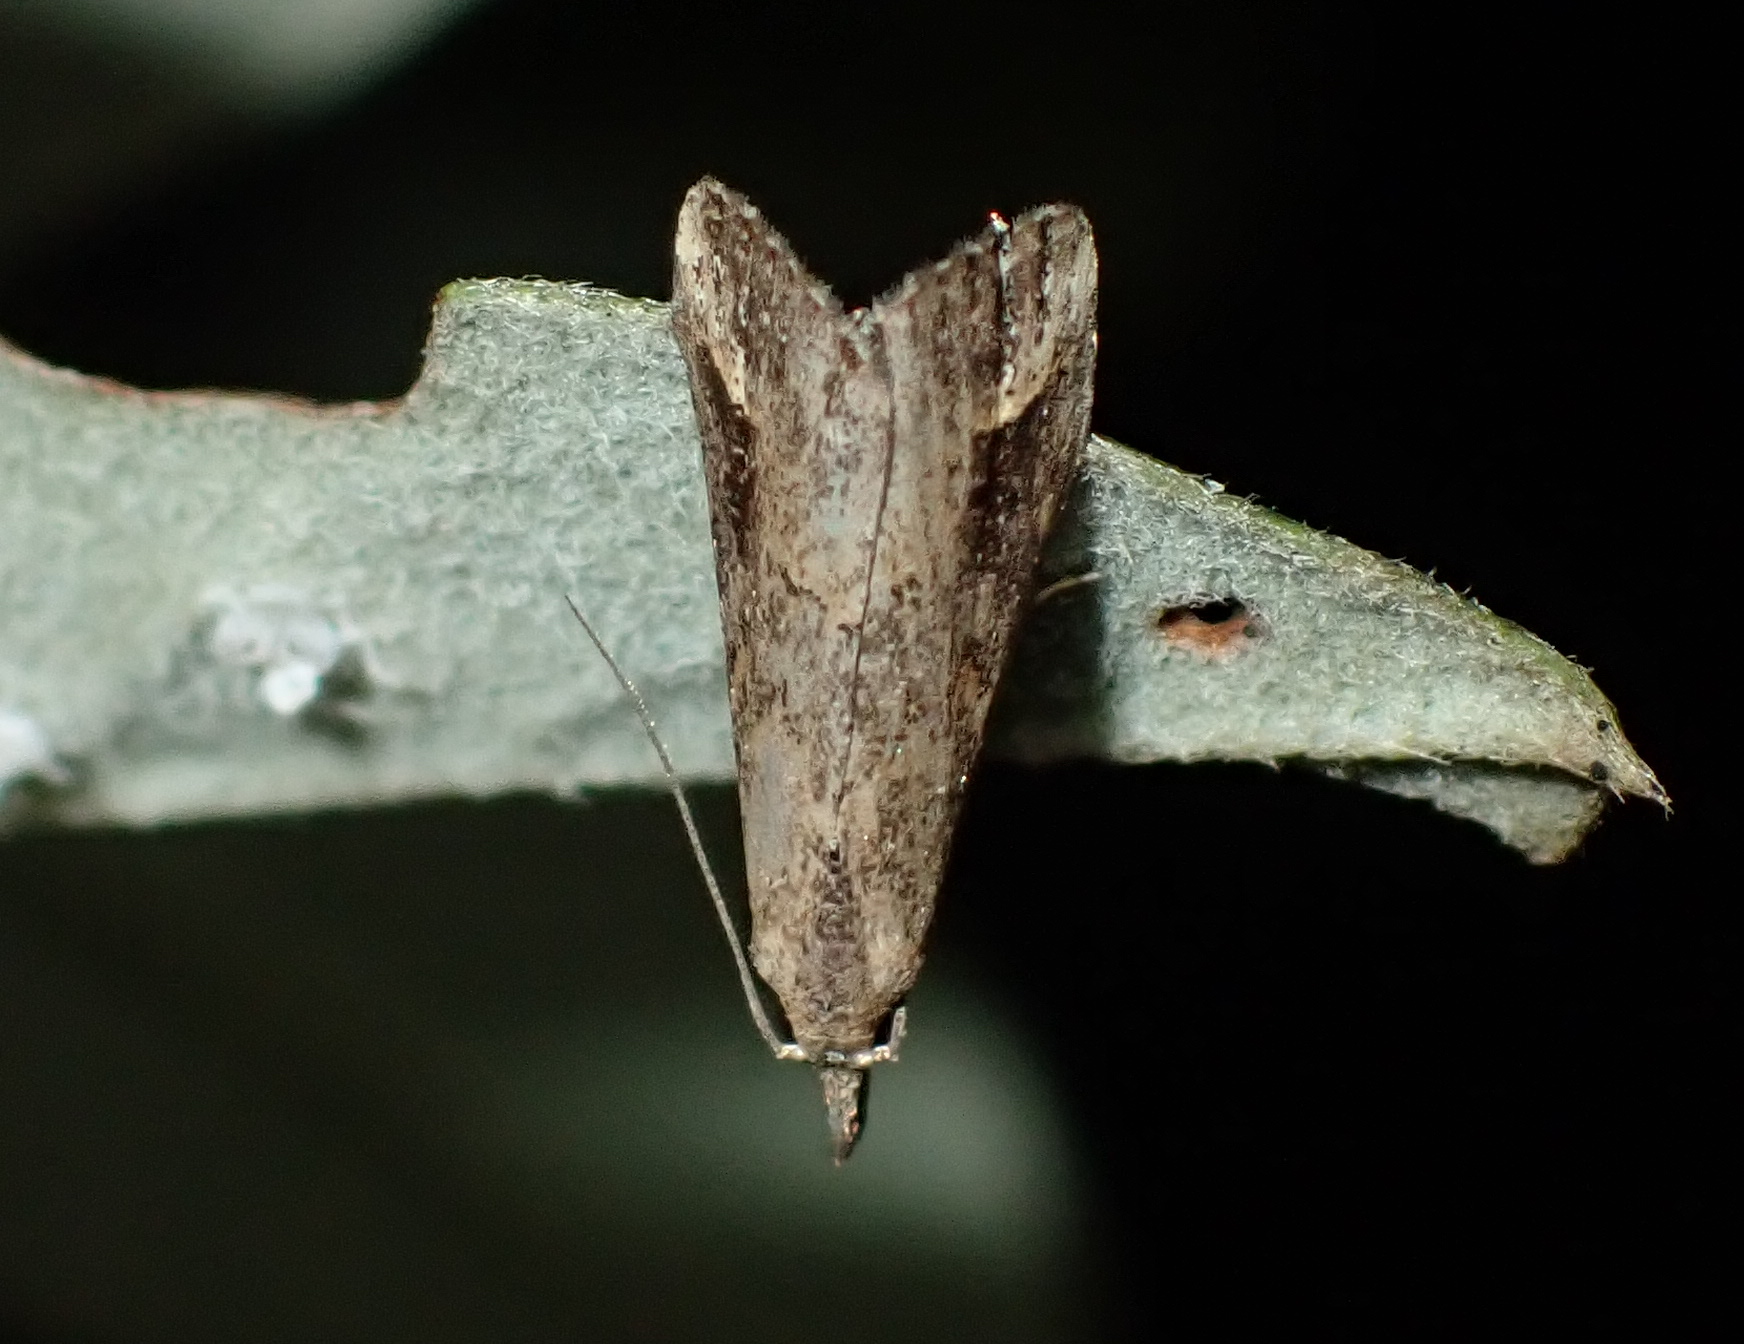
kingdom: Animalia
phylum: Arthropoda
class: Insecta
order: Lepidoptera
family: Erebidae
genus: Schrankia
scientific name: Schrankia costaestrigalis
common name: Pinion-streaked snout
